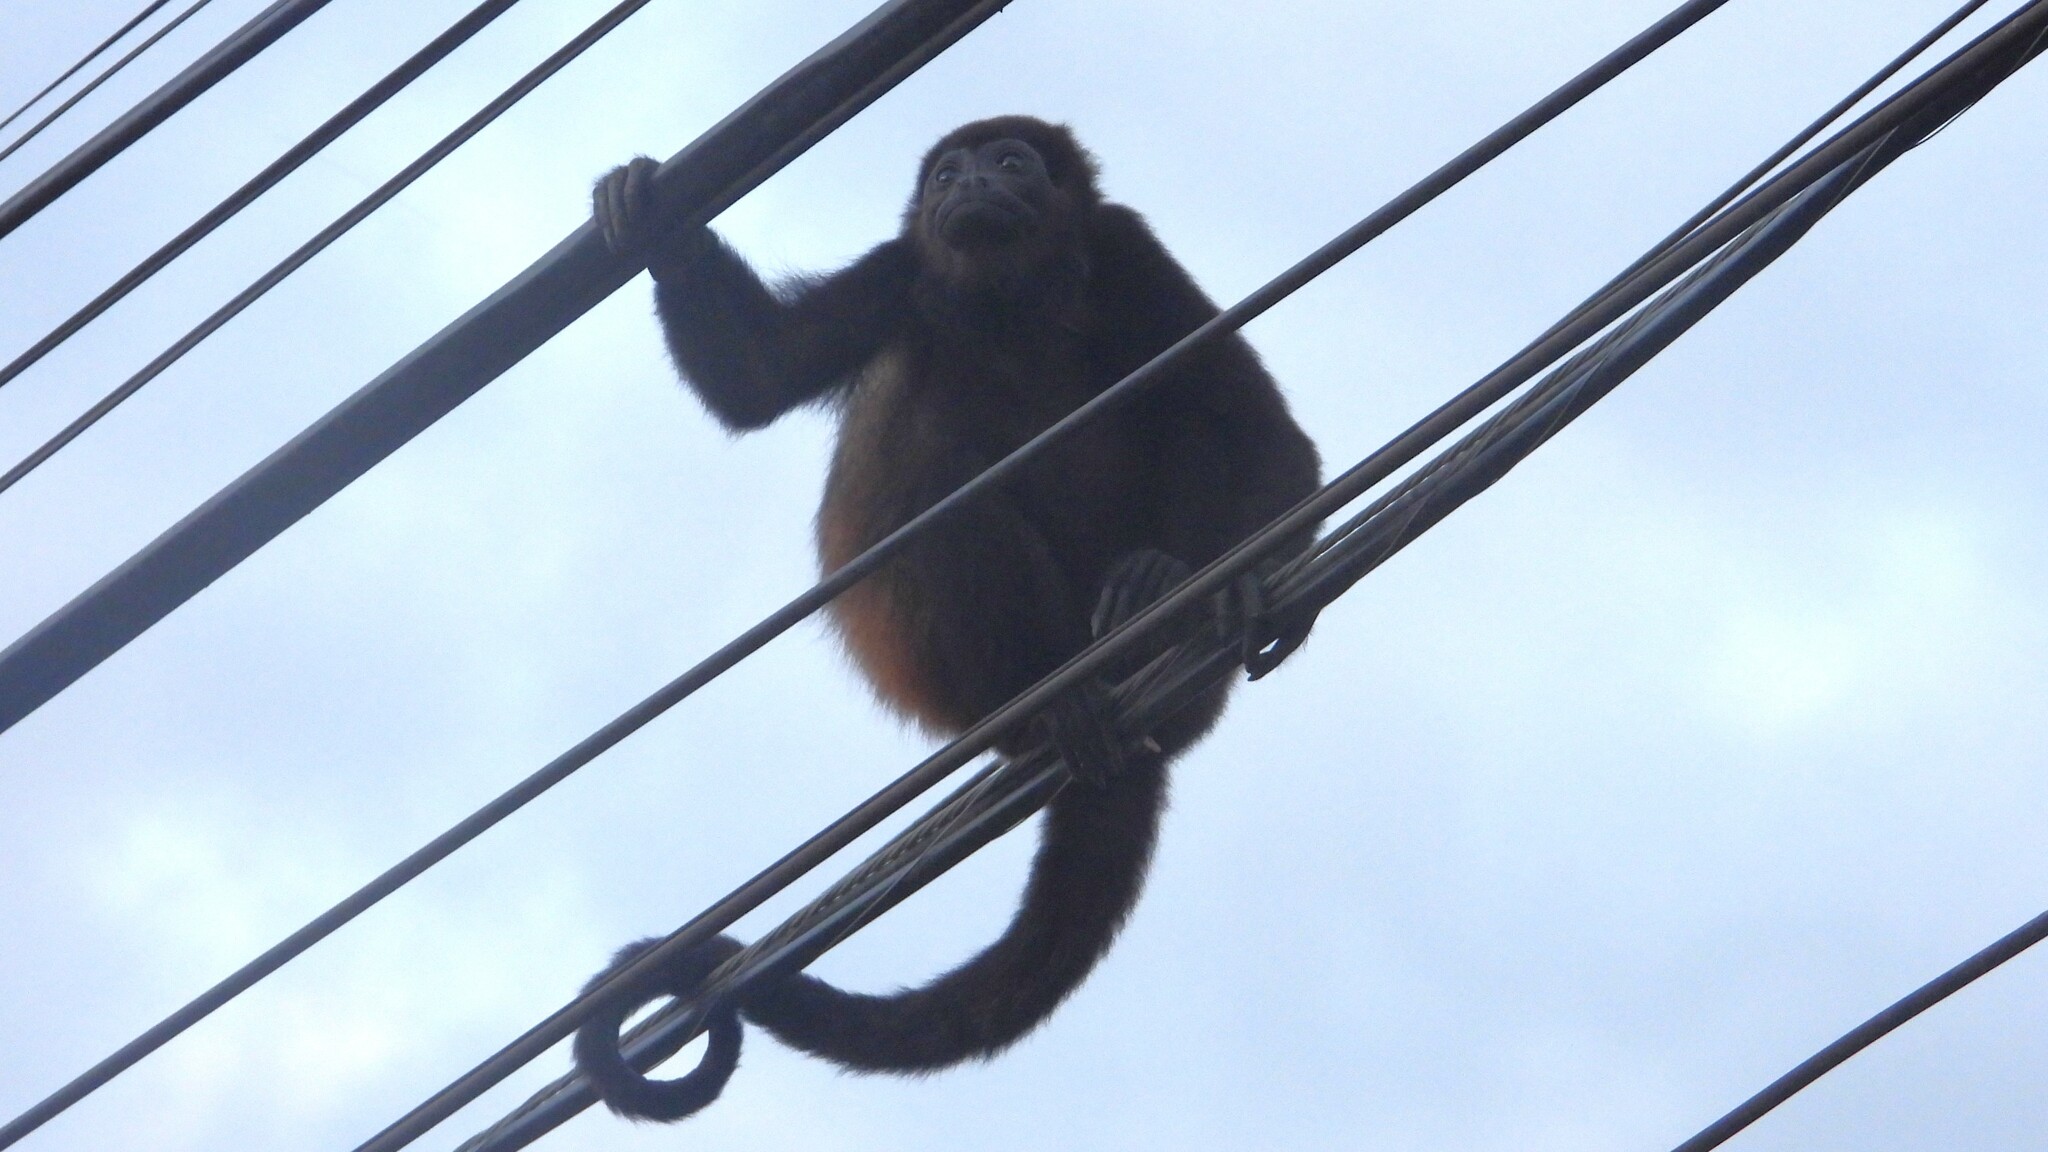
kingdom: Animalia
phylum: Chordata
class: Mammalia
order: Primates
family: Atelidae
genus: Alouatta
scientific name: Alouatta palliata
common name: Mantled howler
